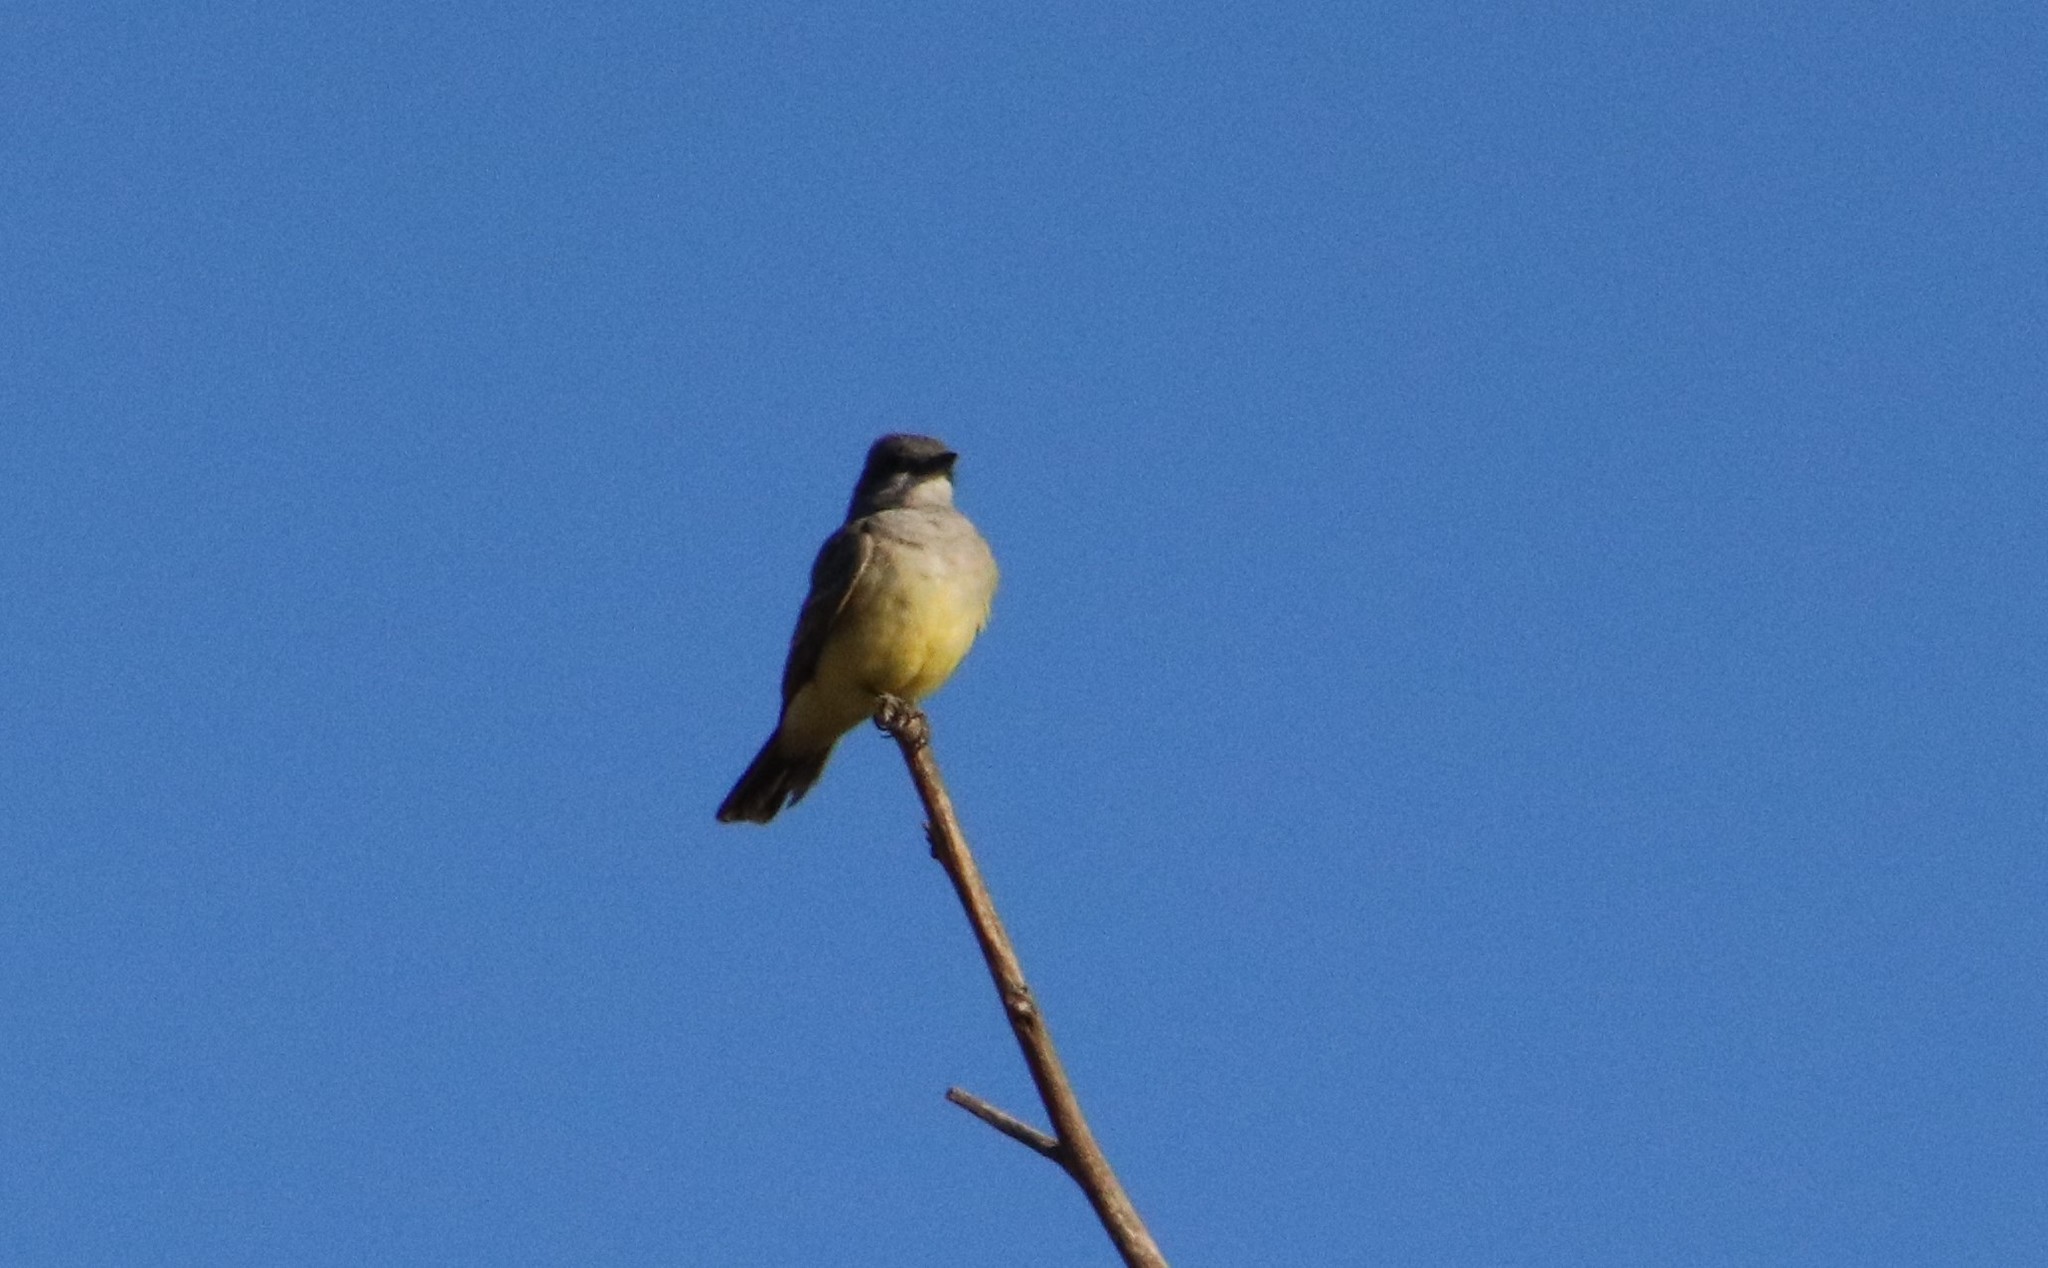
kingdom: Animalia
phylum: Chordata
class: Aves
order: Passeriformes
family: Tyrannidae
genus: Tyrannus
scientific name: Tyrannus vociferans
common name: Cassin's kingbird
